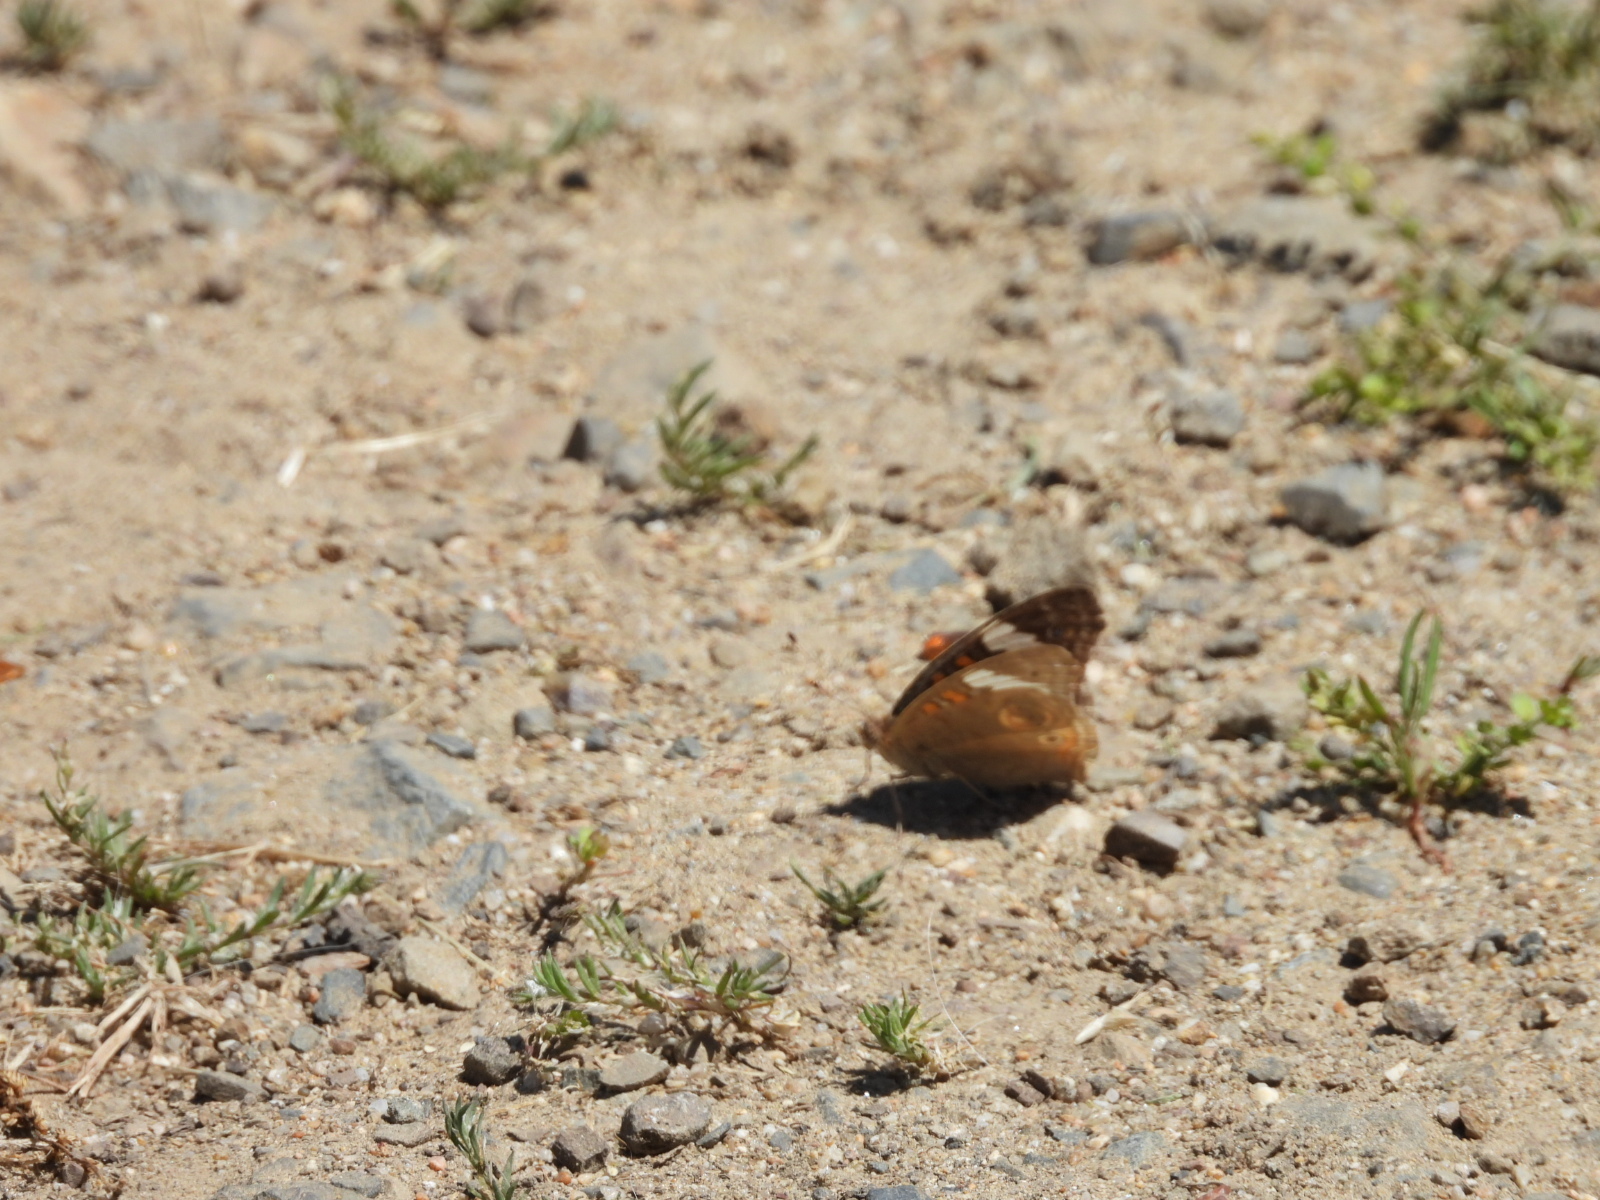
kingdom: Animalia
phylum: Arthropoda
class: Insecta
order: Lepidoptera
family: Nymphalidae
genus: Junonia
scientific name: Junonia grisea
